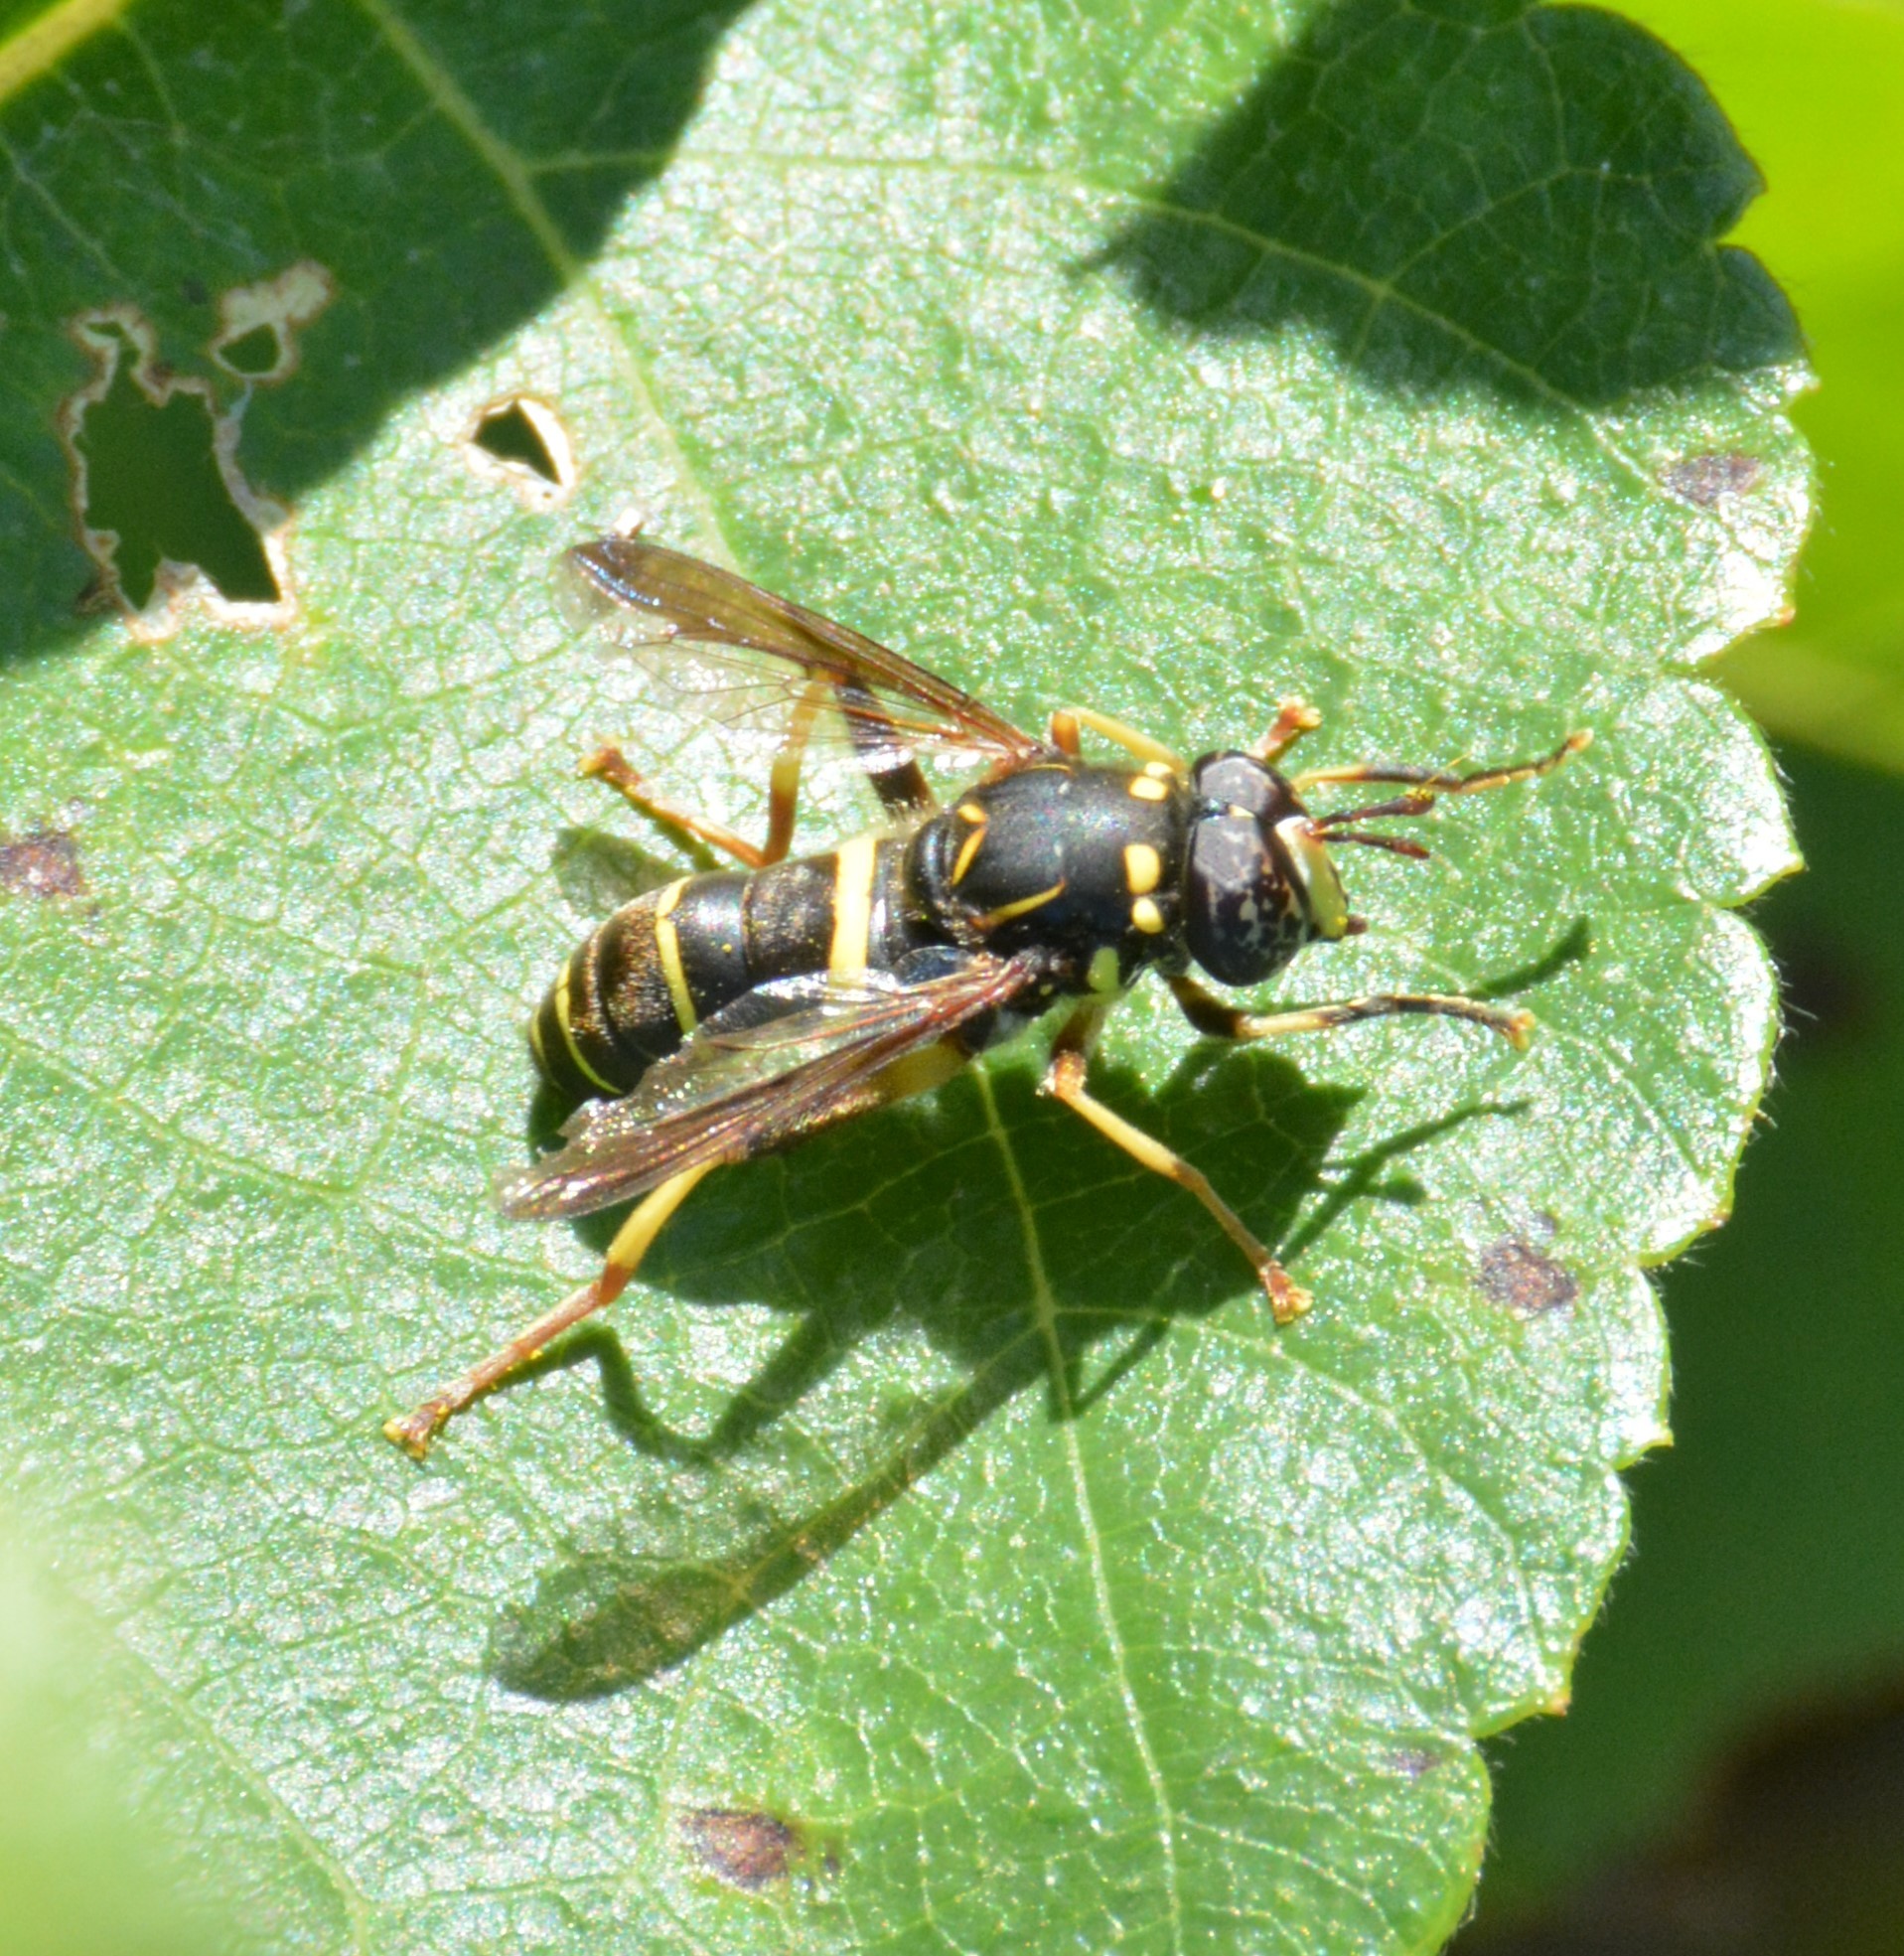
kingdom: Animalia
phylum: Arthropoda
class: Insecta
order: Diptera
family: Syrphidae
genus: Spilomyia
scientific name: Spilomyia sayi
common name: Four-lined hornet fly
